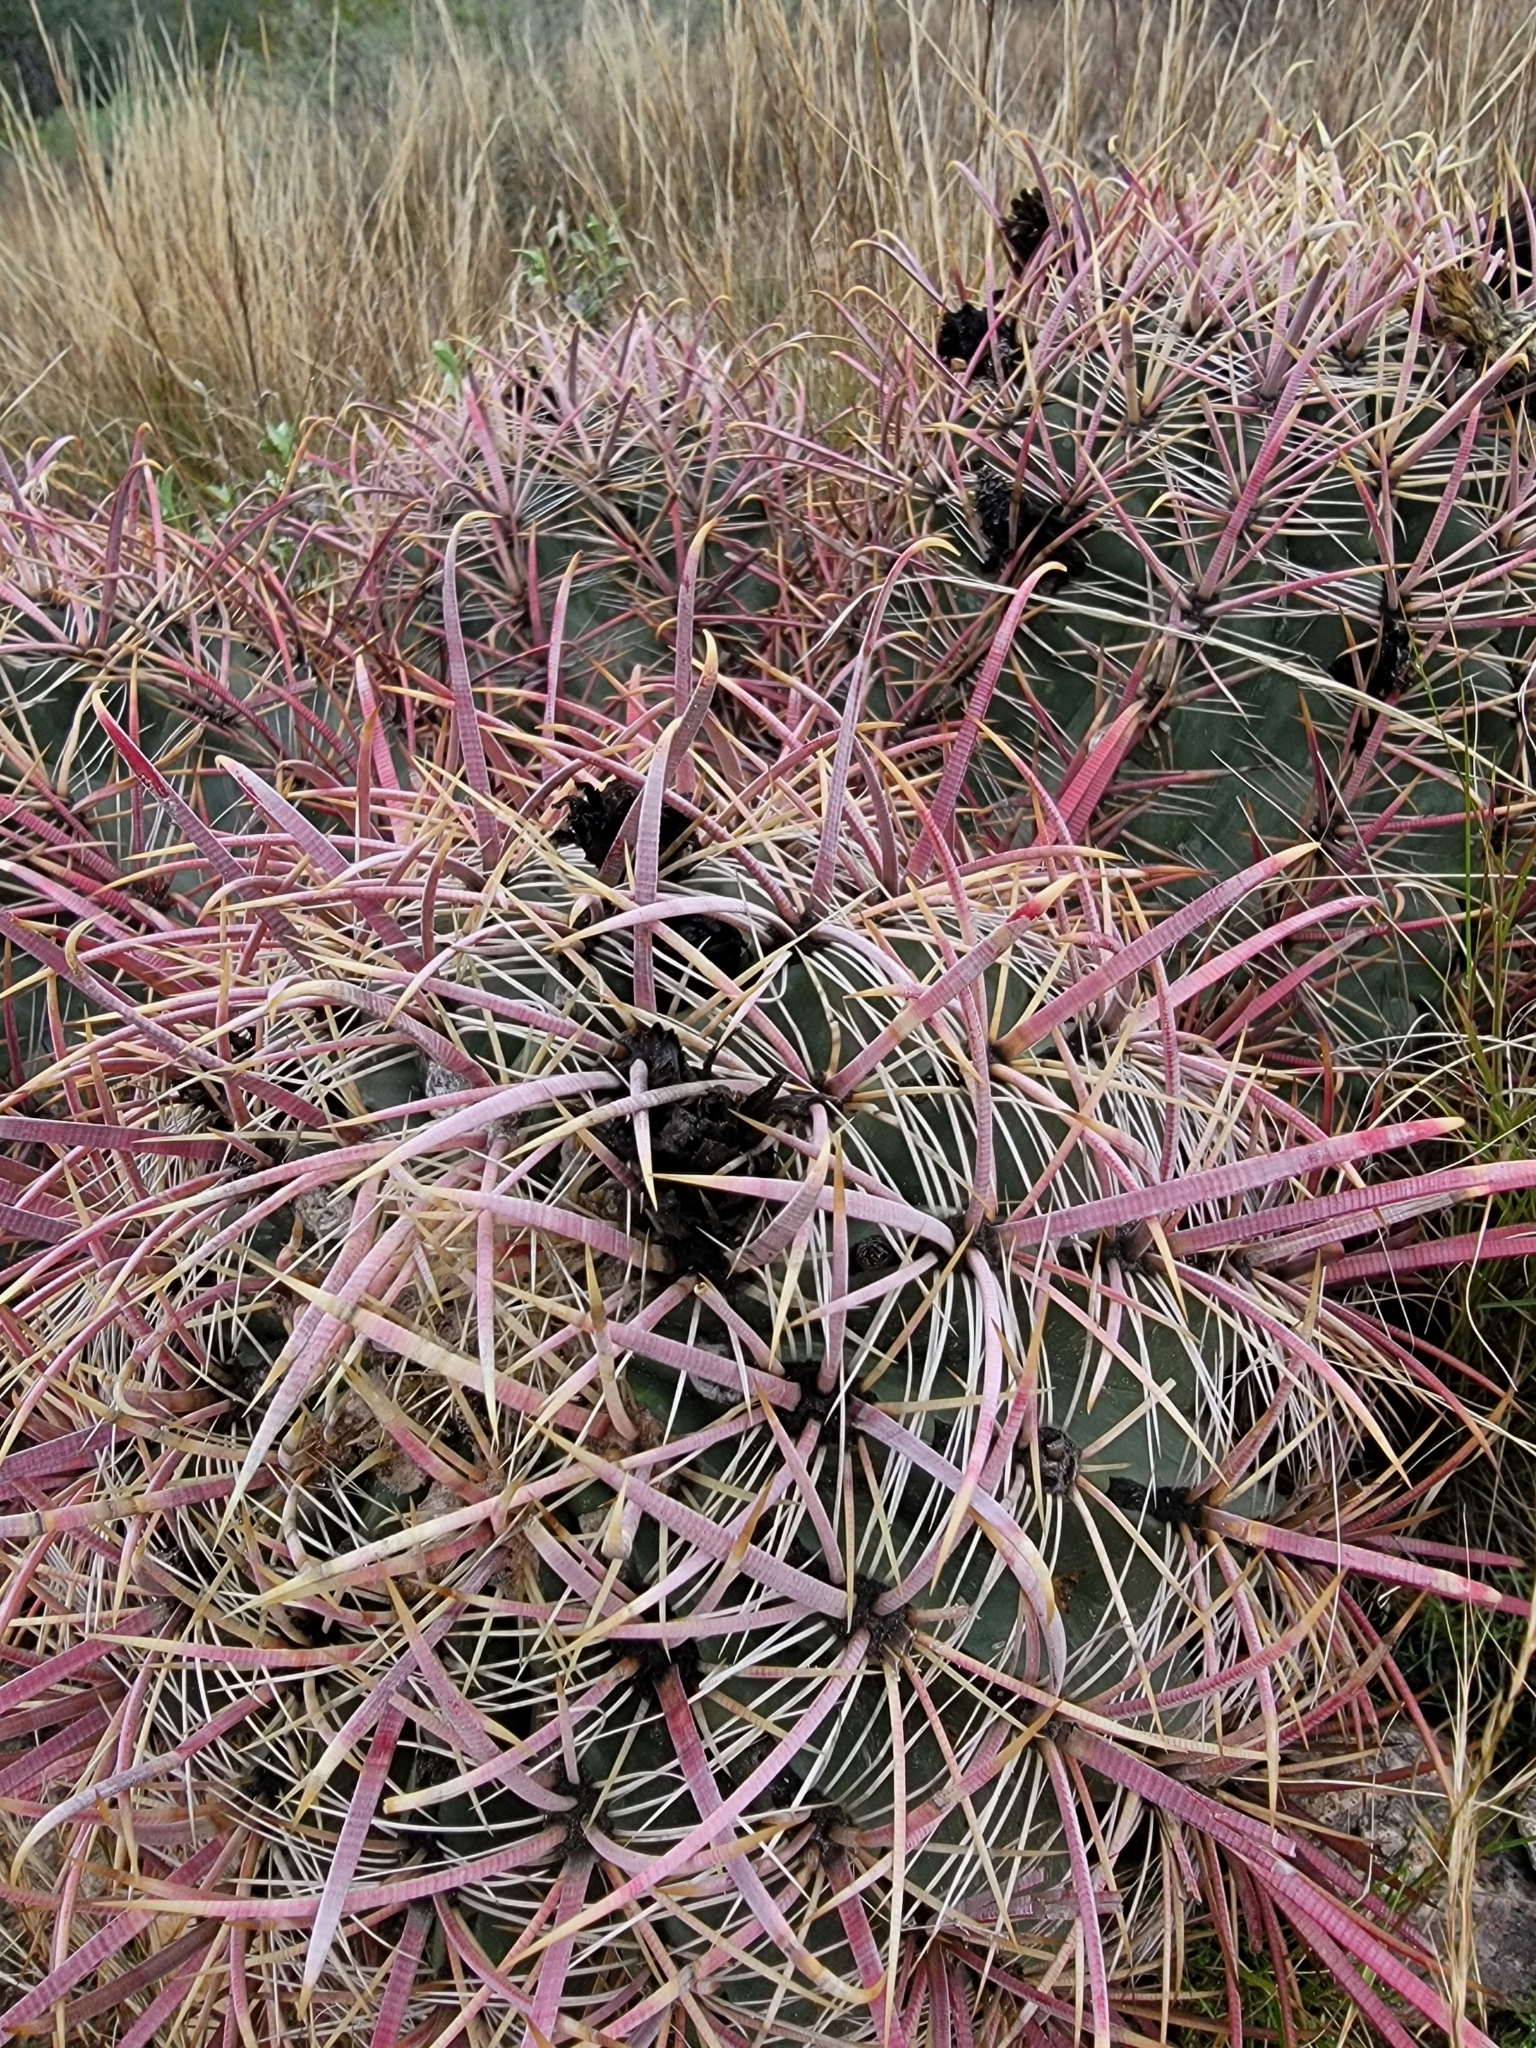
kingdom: Plantae
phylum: Tracheophyta
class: Magnoliopsida
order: Caryophyllales
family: Cactaceae
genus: Ferocactus
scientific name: Ferocactus cylindraceus
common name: California barrel cactus
